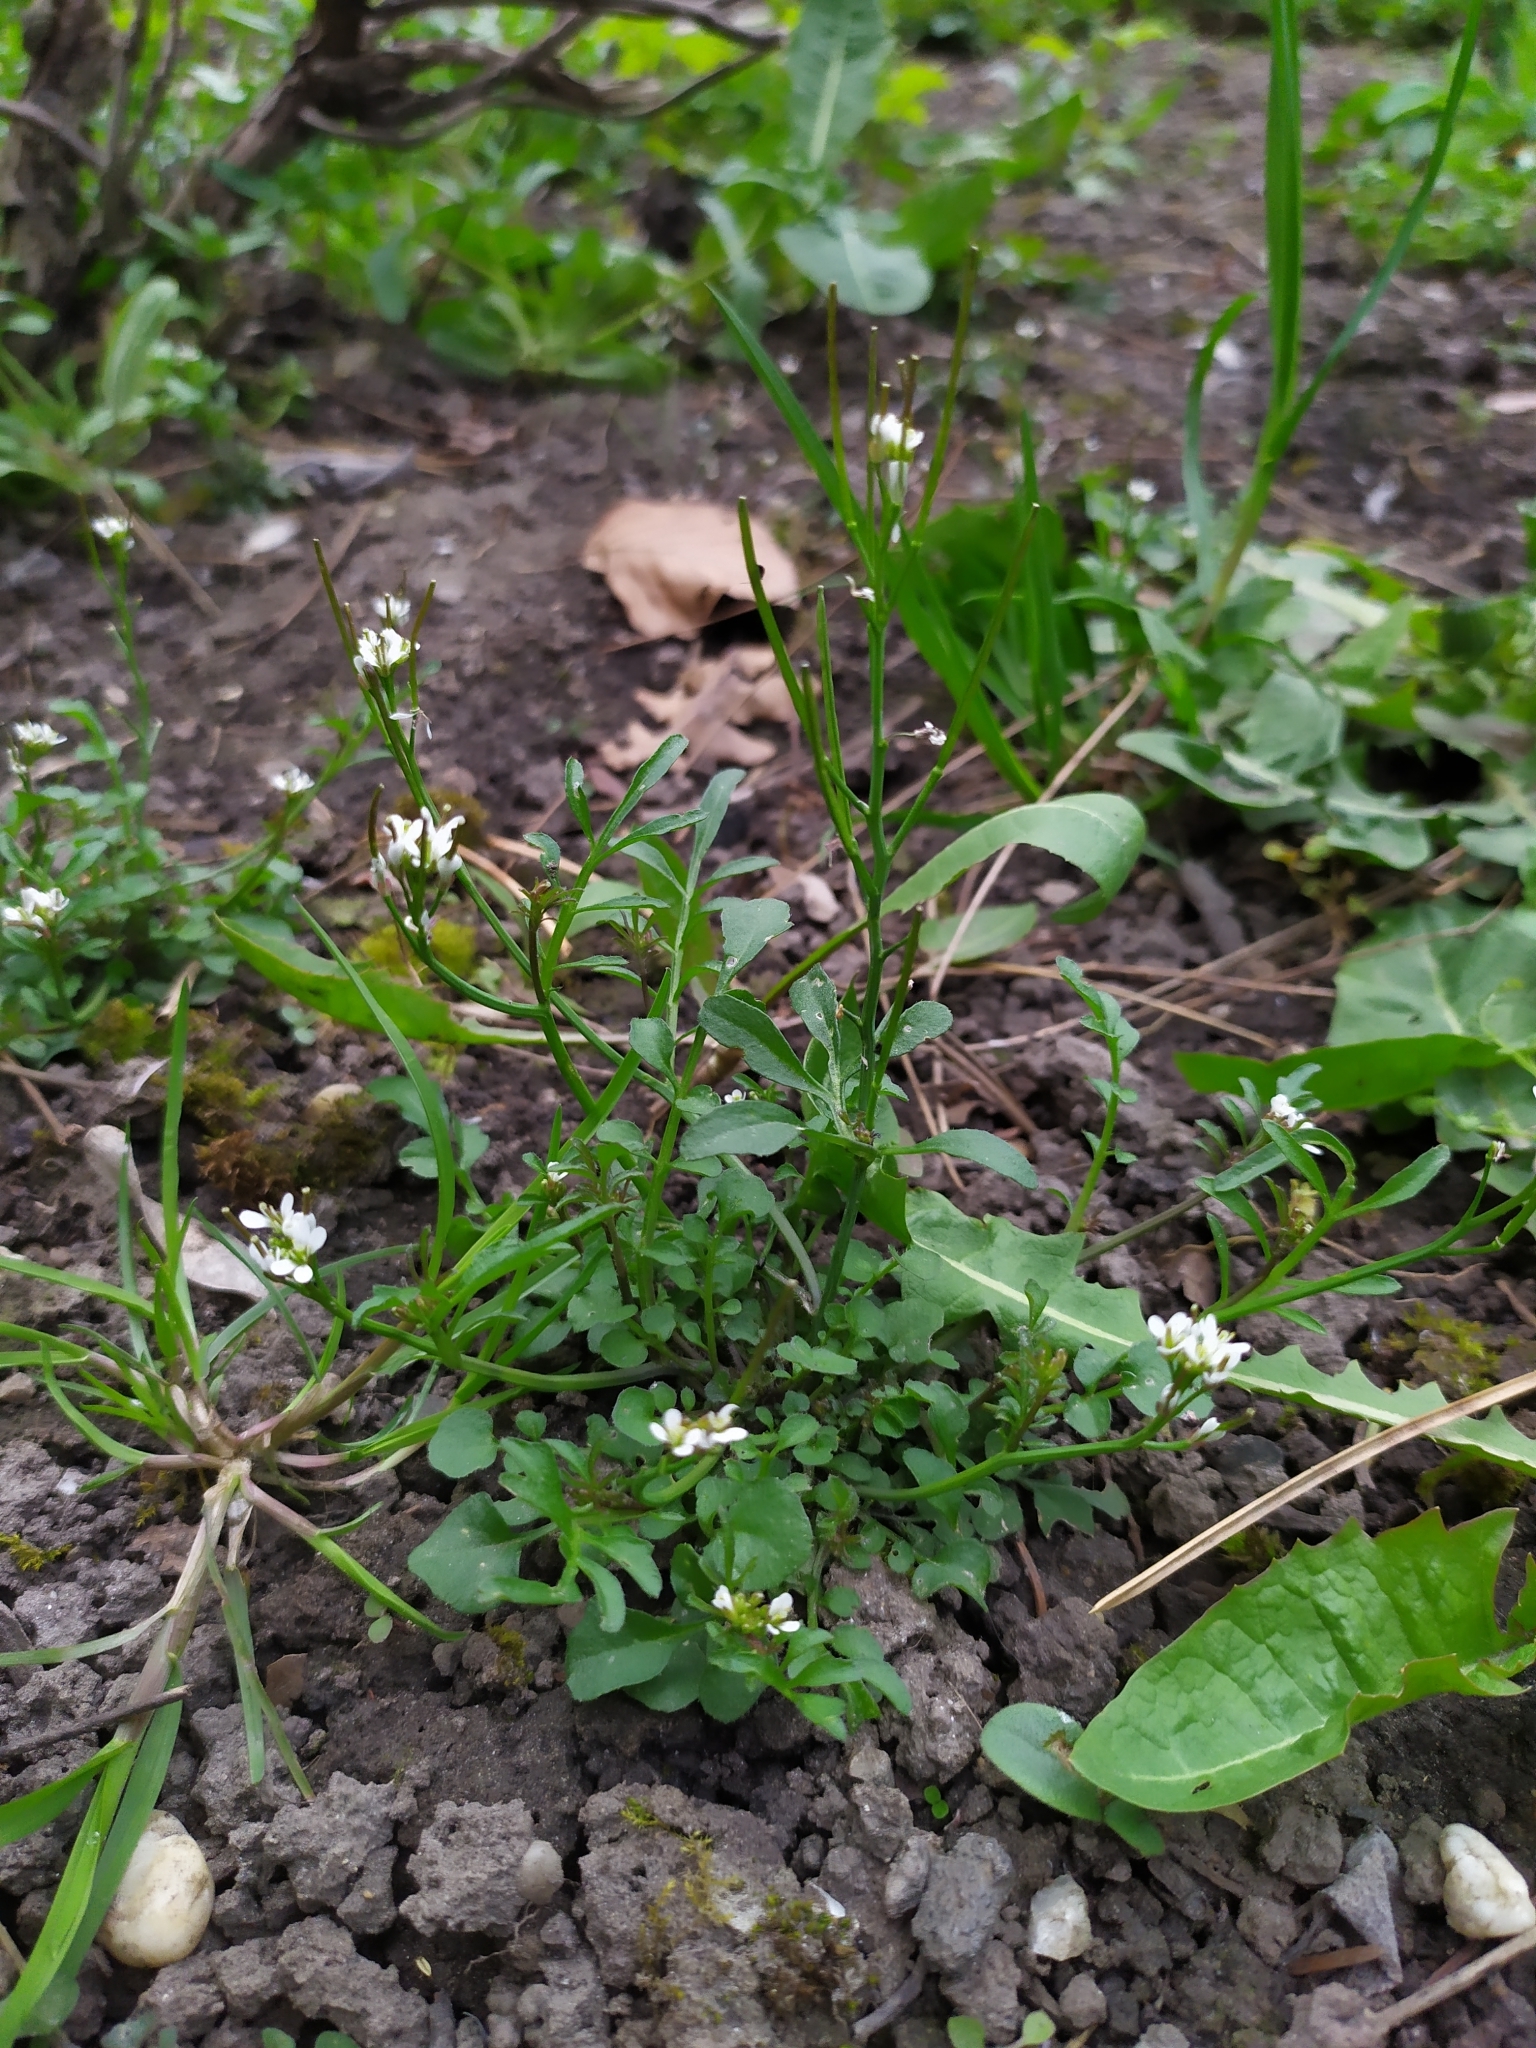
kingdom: Plantae
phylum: Tracheophyta
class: Magnoliopsida
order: Brassicales
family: Brassicaceae
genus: Cardamine
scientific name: Cardamine hirsuta
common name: Hairy bittercress
